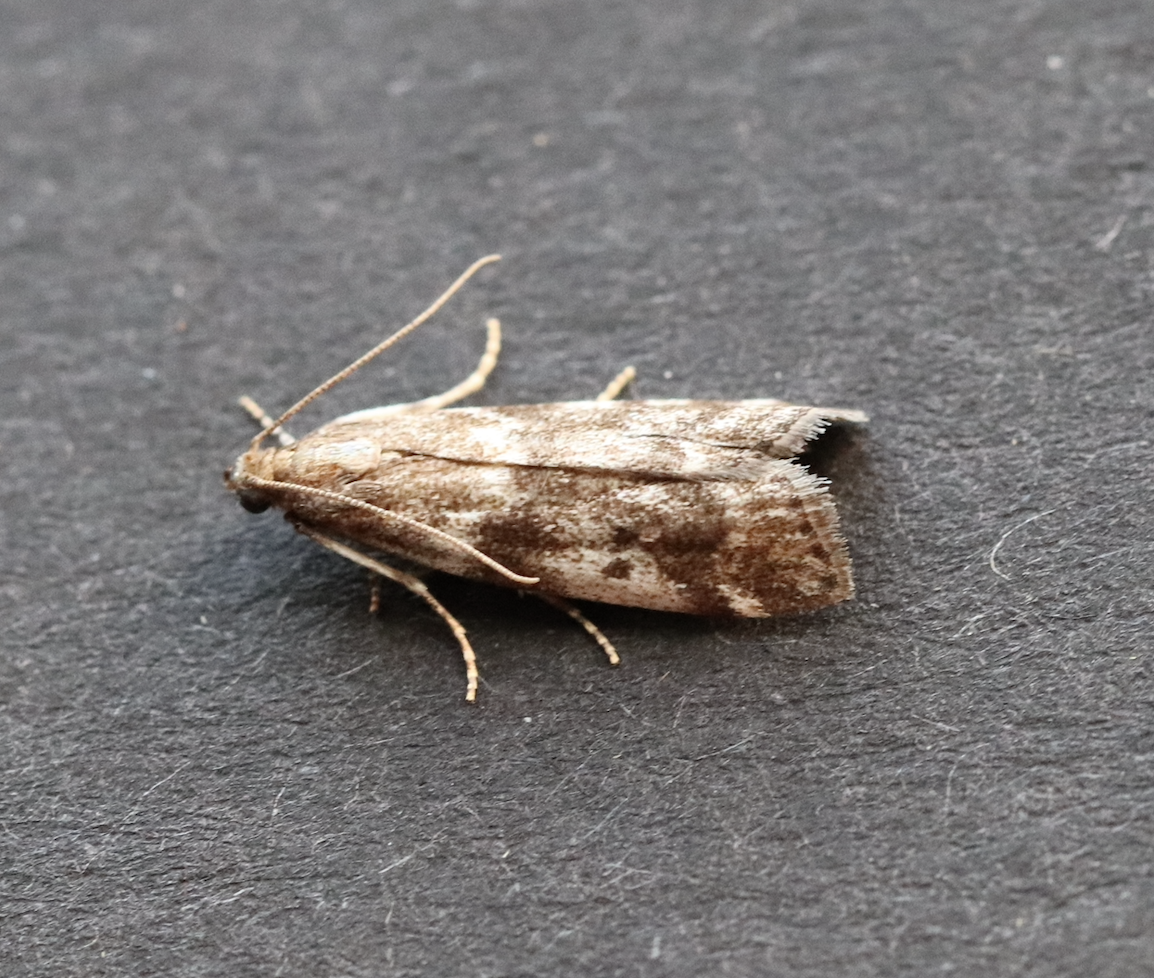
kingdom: Animalia
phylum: Arthropoda
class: Insecta
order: Lepidoptera
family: Pyralidae
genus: Assara
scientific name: Assara terebrella
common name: Dark spruce knot-horn
